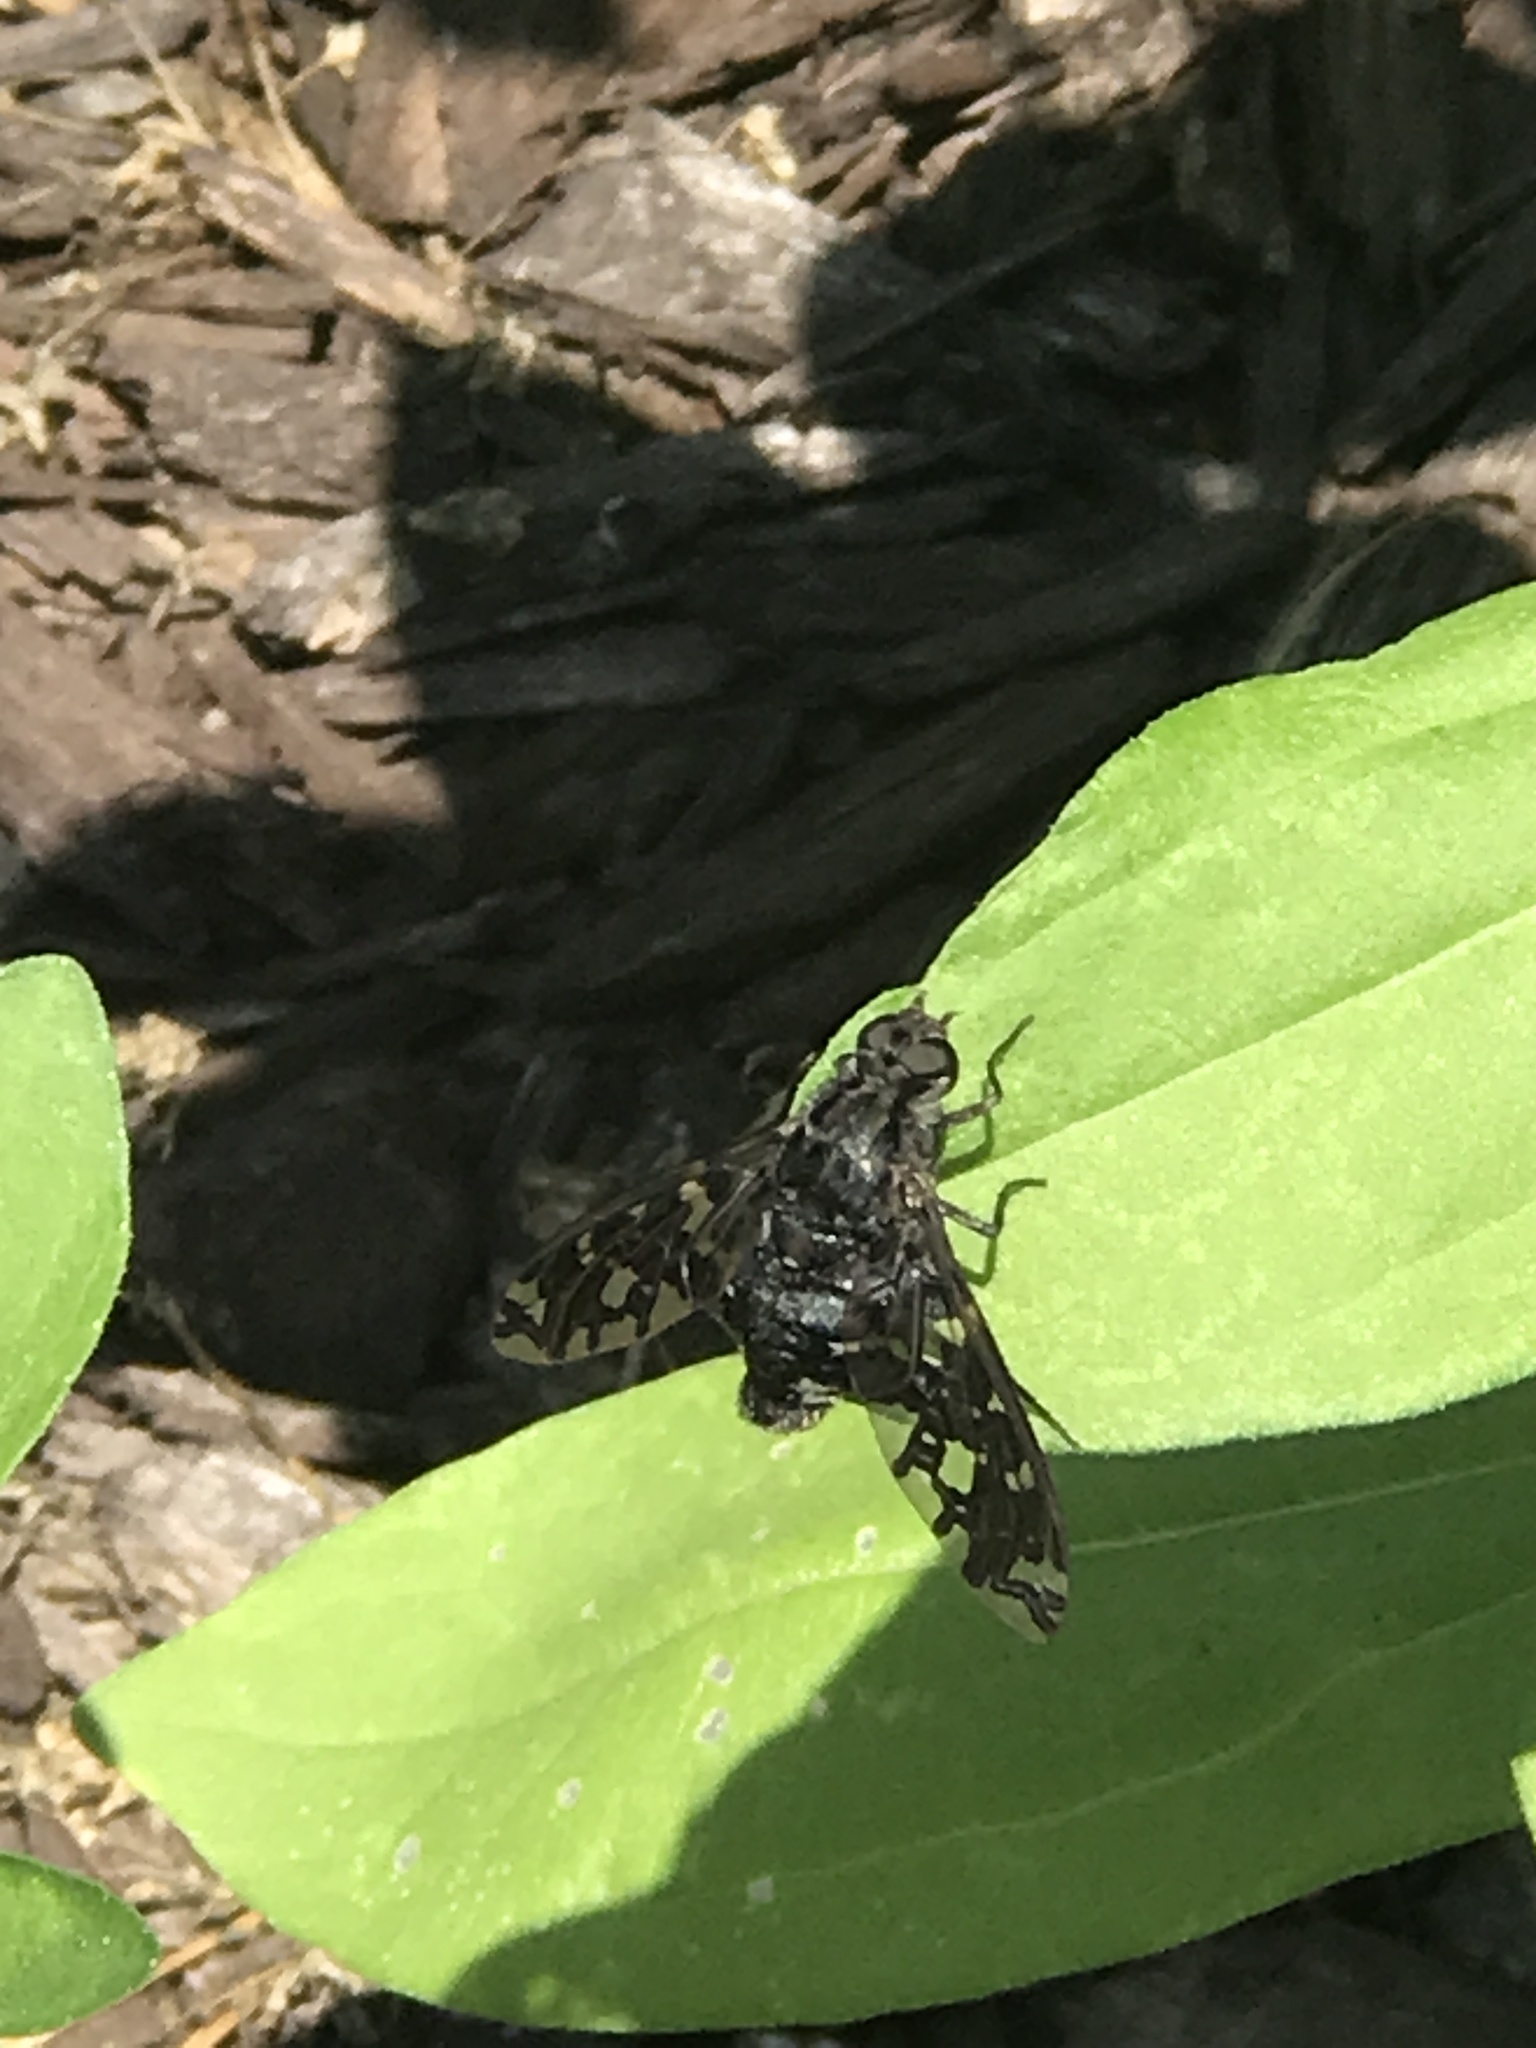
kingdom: Animalia
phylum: Arthropoda
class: Insecta
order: Diptera
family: Bombyliidae
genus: Xenox
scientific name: Xenox tigrinus
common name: Tiger bee fly
